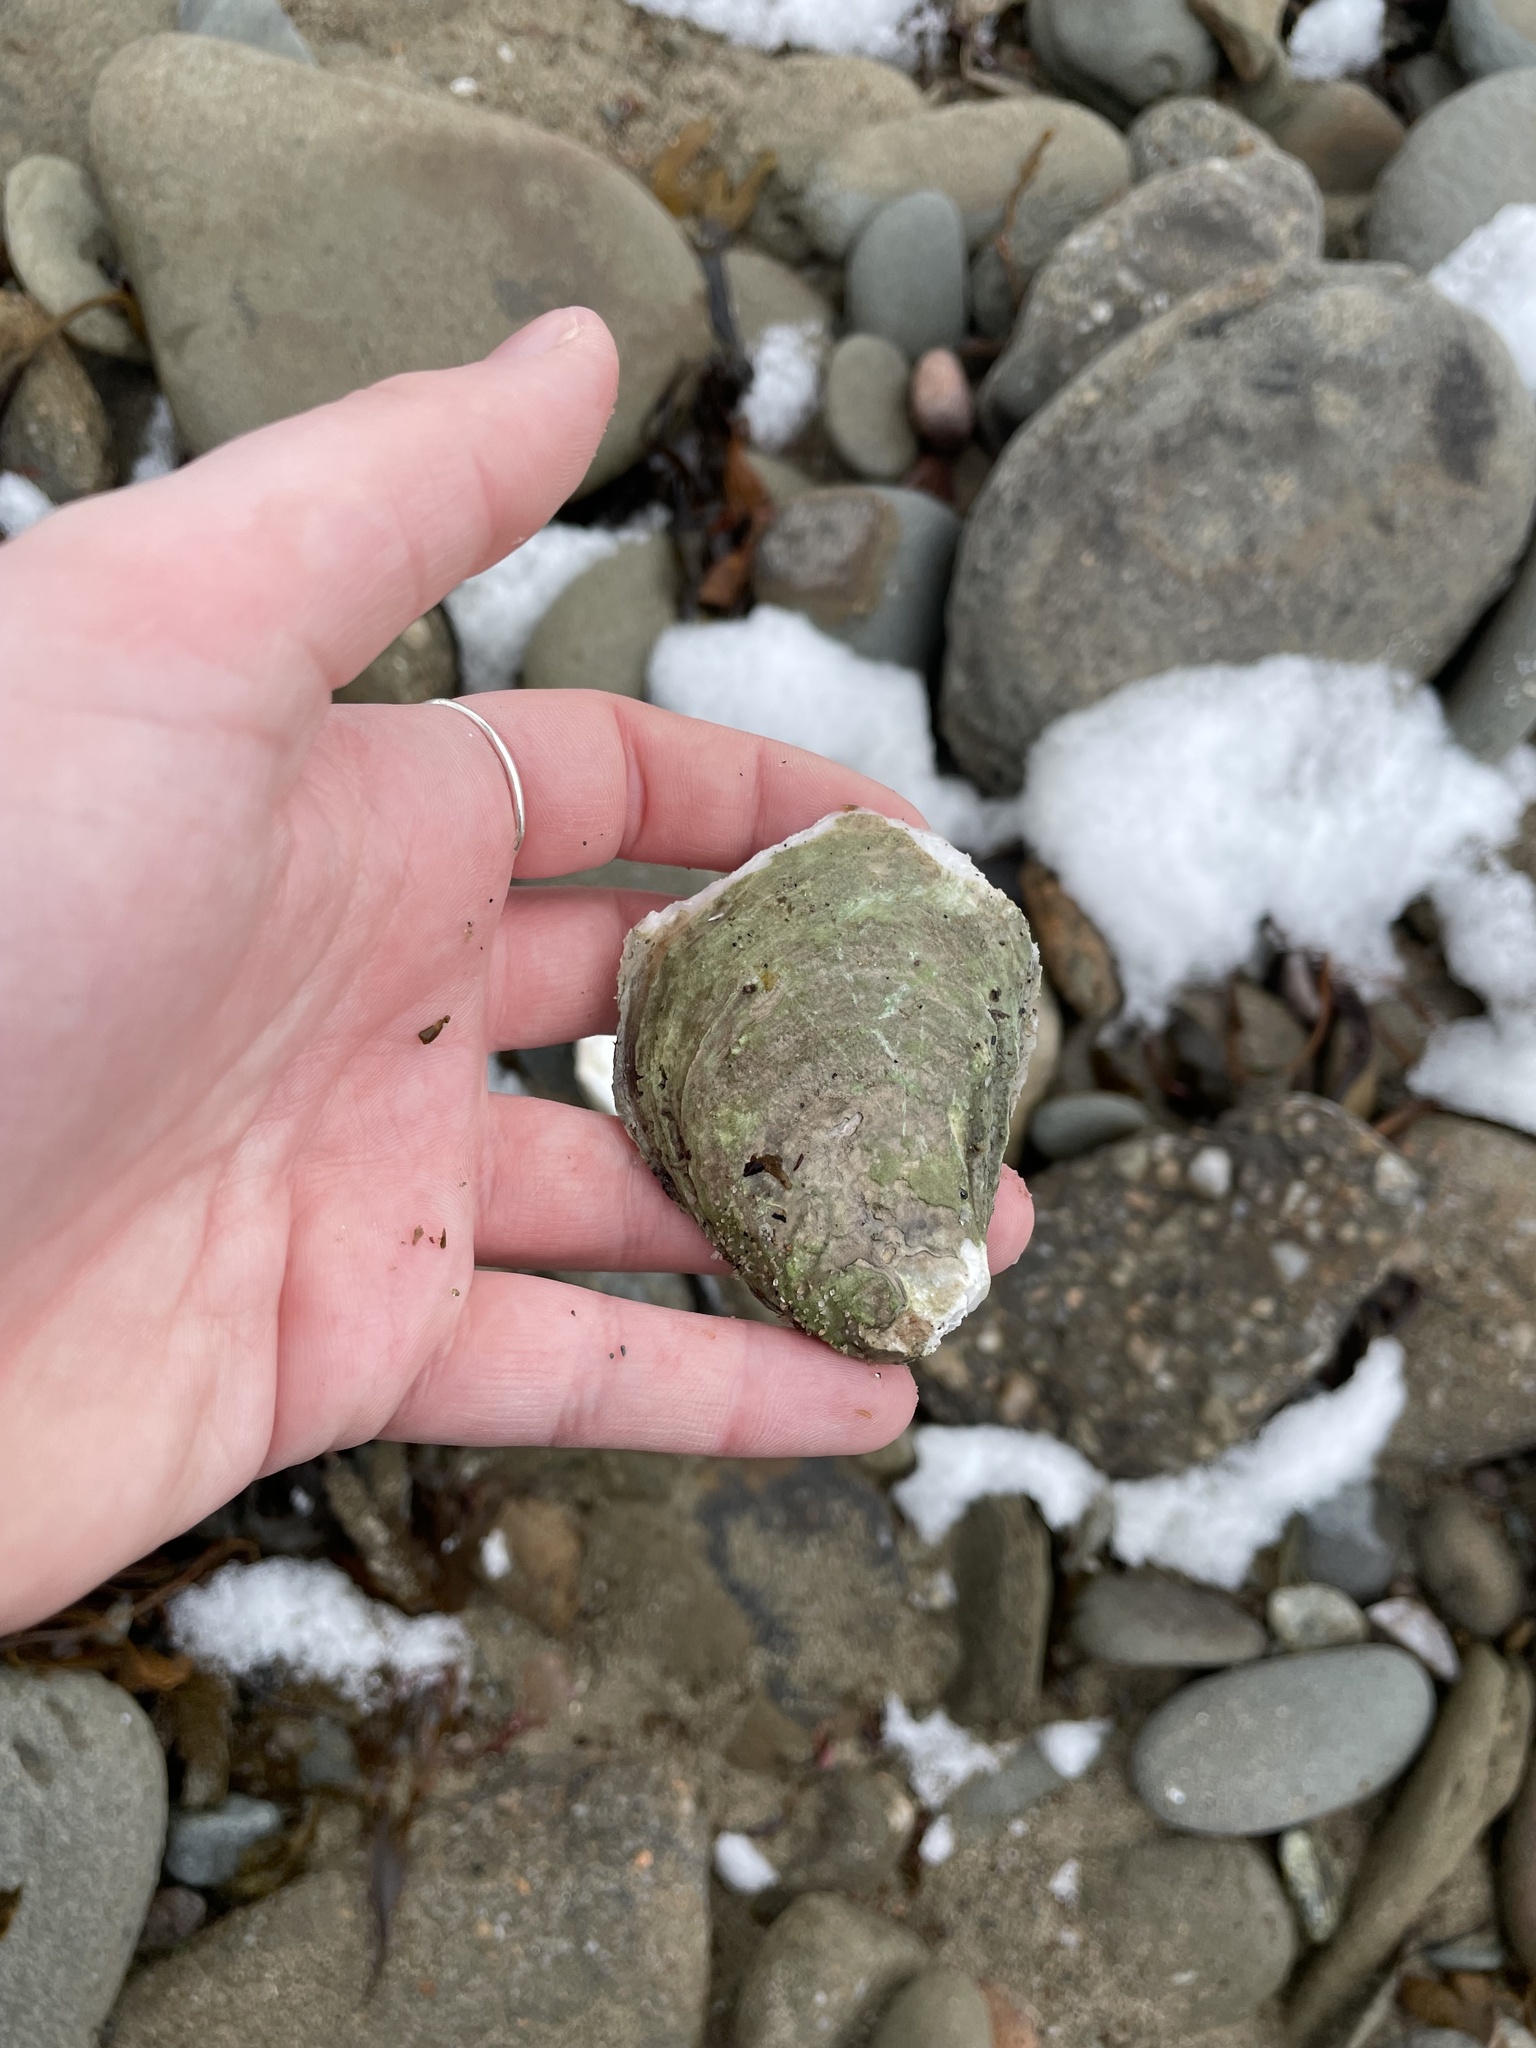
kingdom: Animalia
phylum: Mollusca
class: Bivalvia
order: Ostreida
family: Ostreidae
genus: Crassostrea
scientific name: Crassostrea virginica
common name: American oyster
